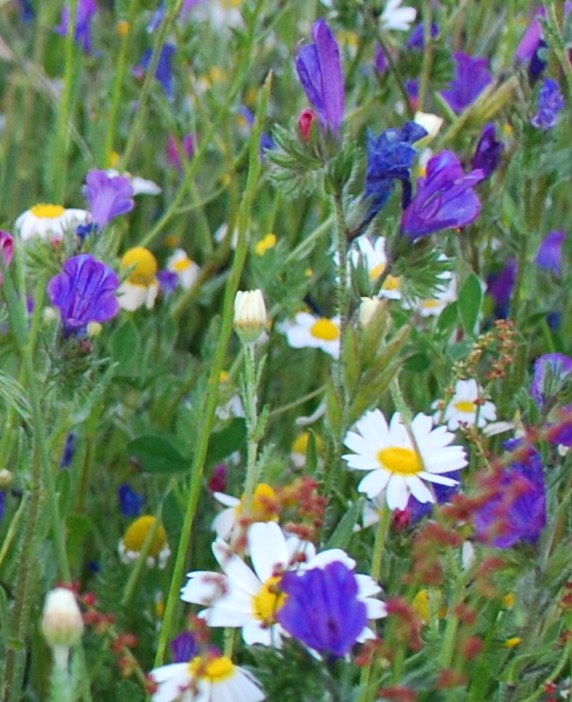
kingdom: Plantae
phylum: Tracheophyta
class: Magnoliopsida
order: Boraginales
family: Boraginaceae
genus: Echium
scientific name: Echium plantagineum
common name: Purple viper's-bugloss
